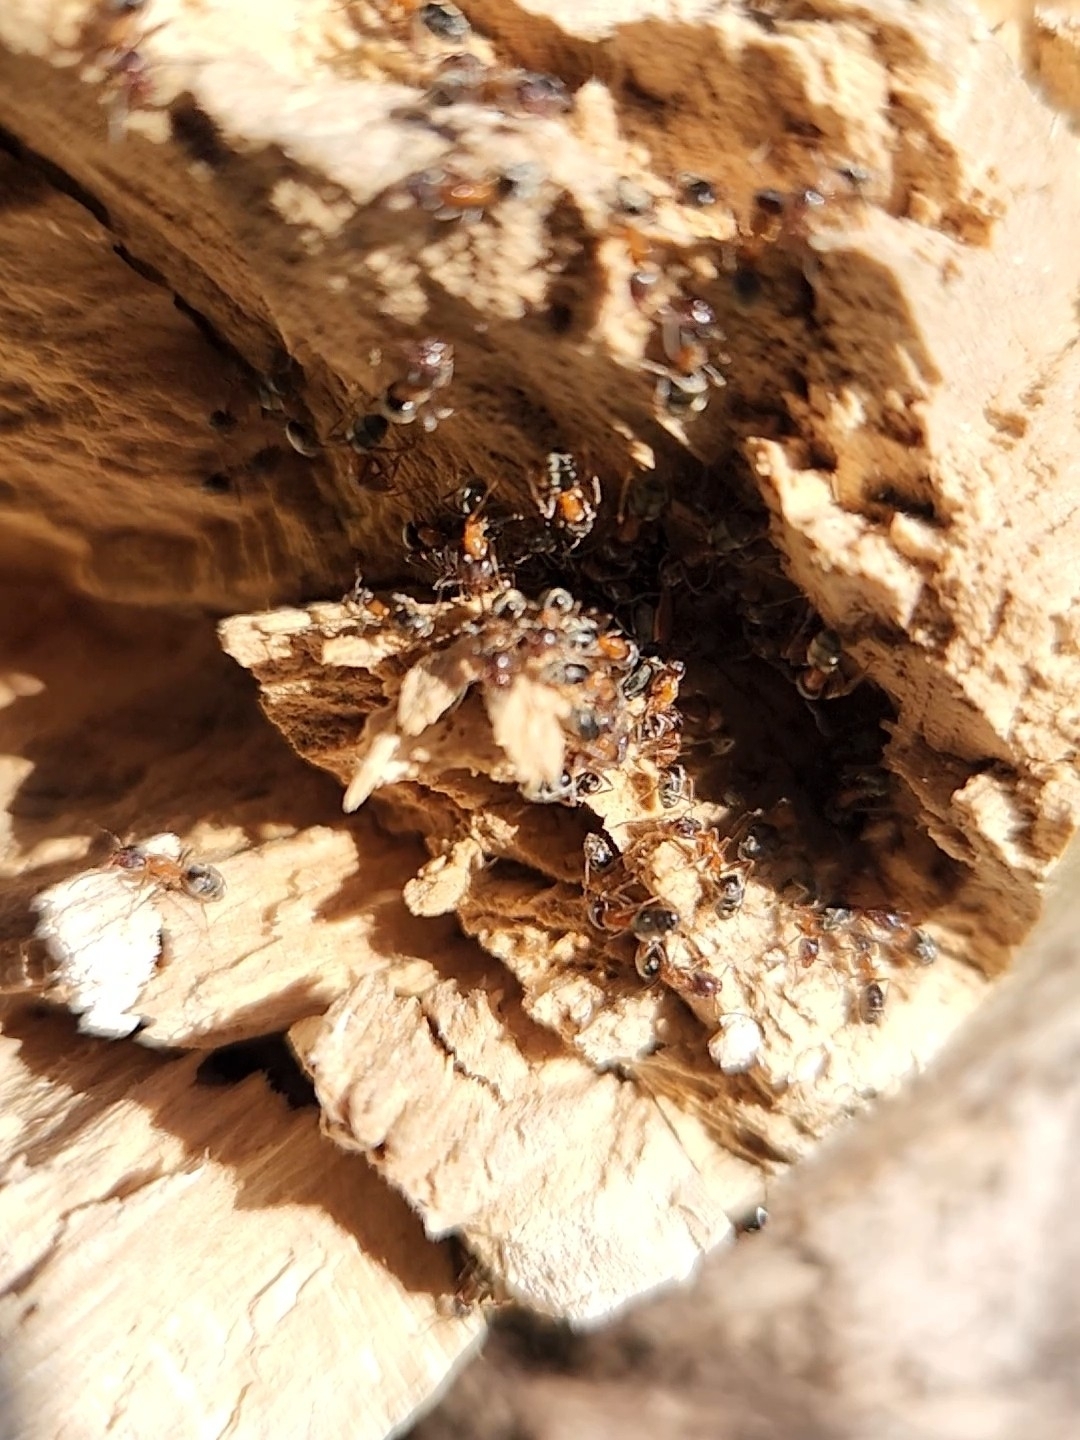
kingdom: Animalia
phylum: Arthropoda
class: Insecta
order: Hymenoptera
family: Formicidae
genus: Liometopum
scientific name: Liometopum occidentale
